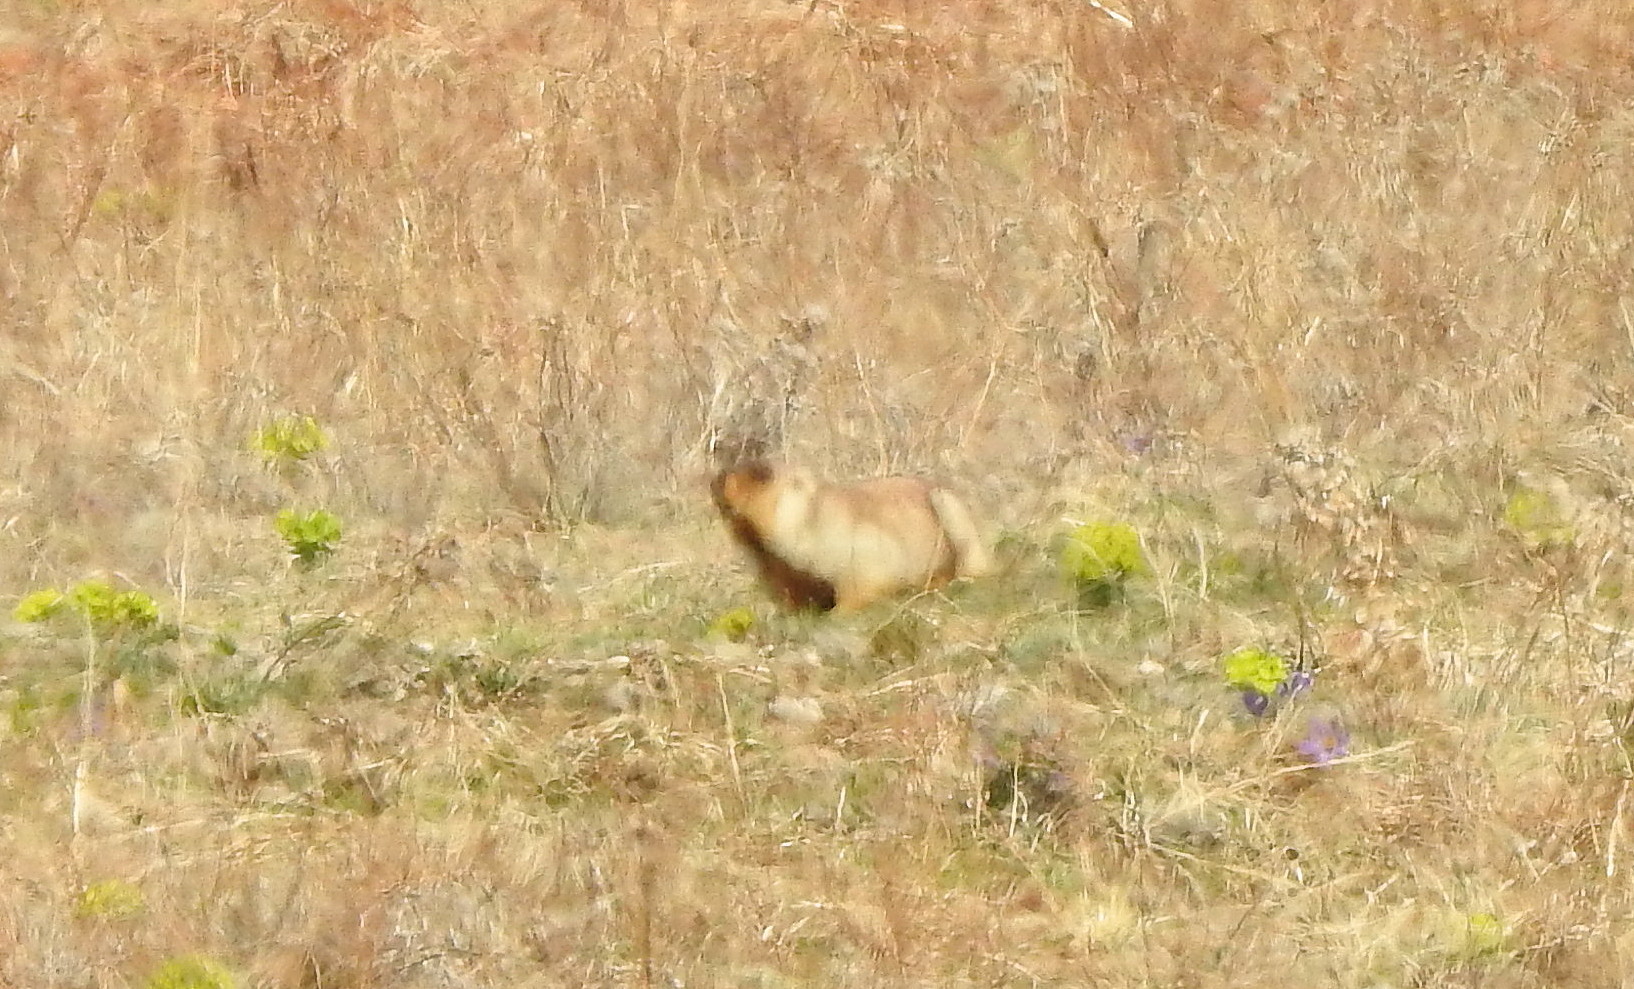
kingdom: Animalia
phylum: Chordata
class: Mammalia
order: Rodentia
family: Sciuridae
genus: Marmota
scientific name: Marmota sibirica
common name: Tarbagan marmot
